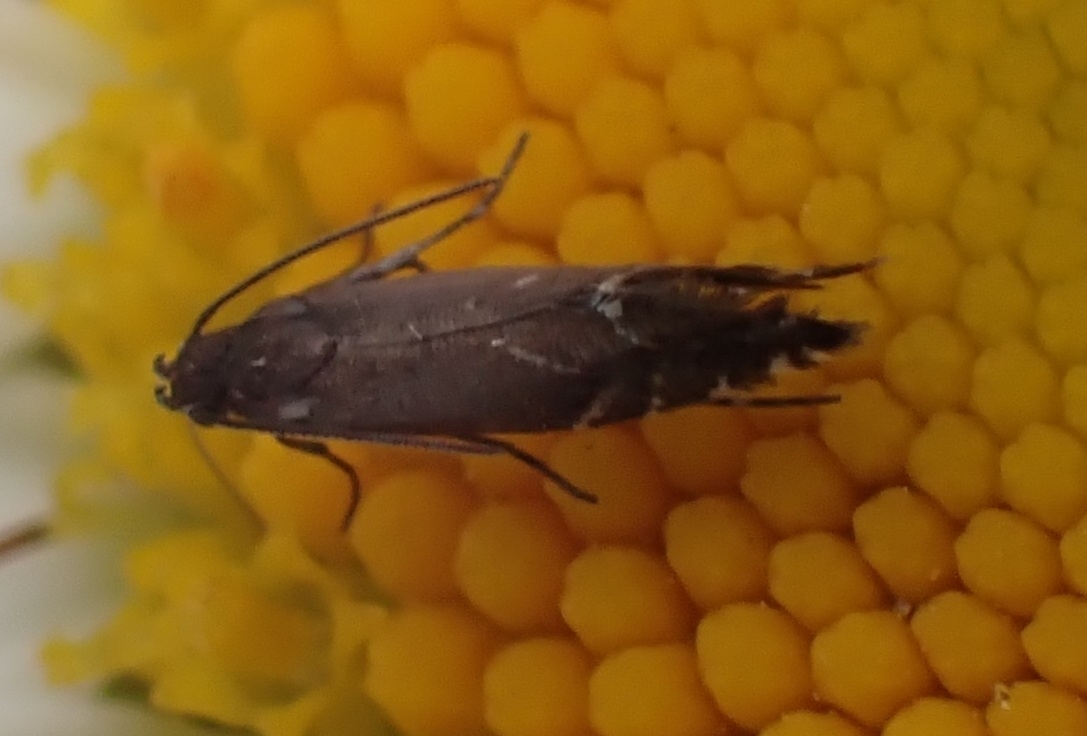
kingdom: Animalia
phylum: Arthropoda
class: Insecta
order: Lepidoptera
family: Glyphipterigidae
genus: Glyphipterix
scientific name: Glyphipterix simpliciella
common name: Cocksfoot moth
